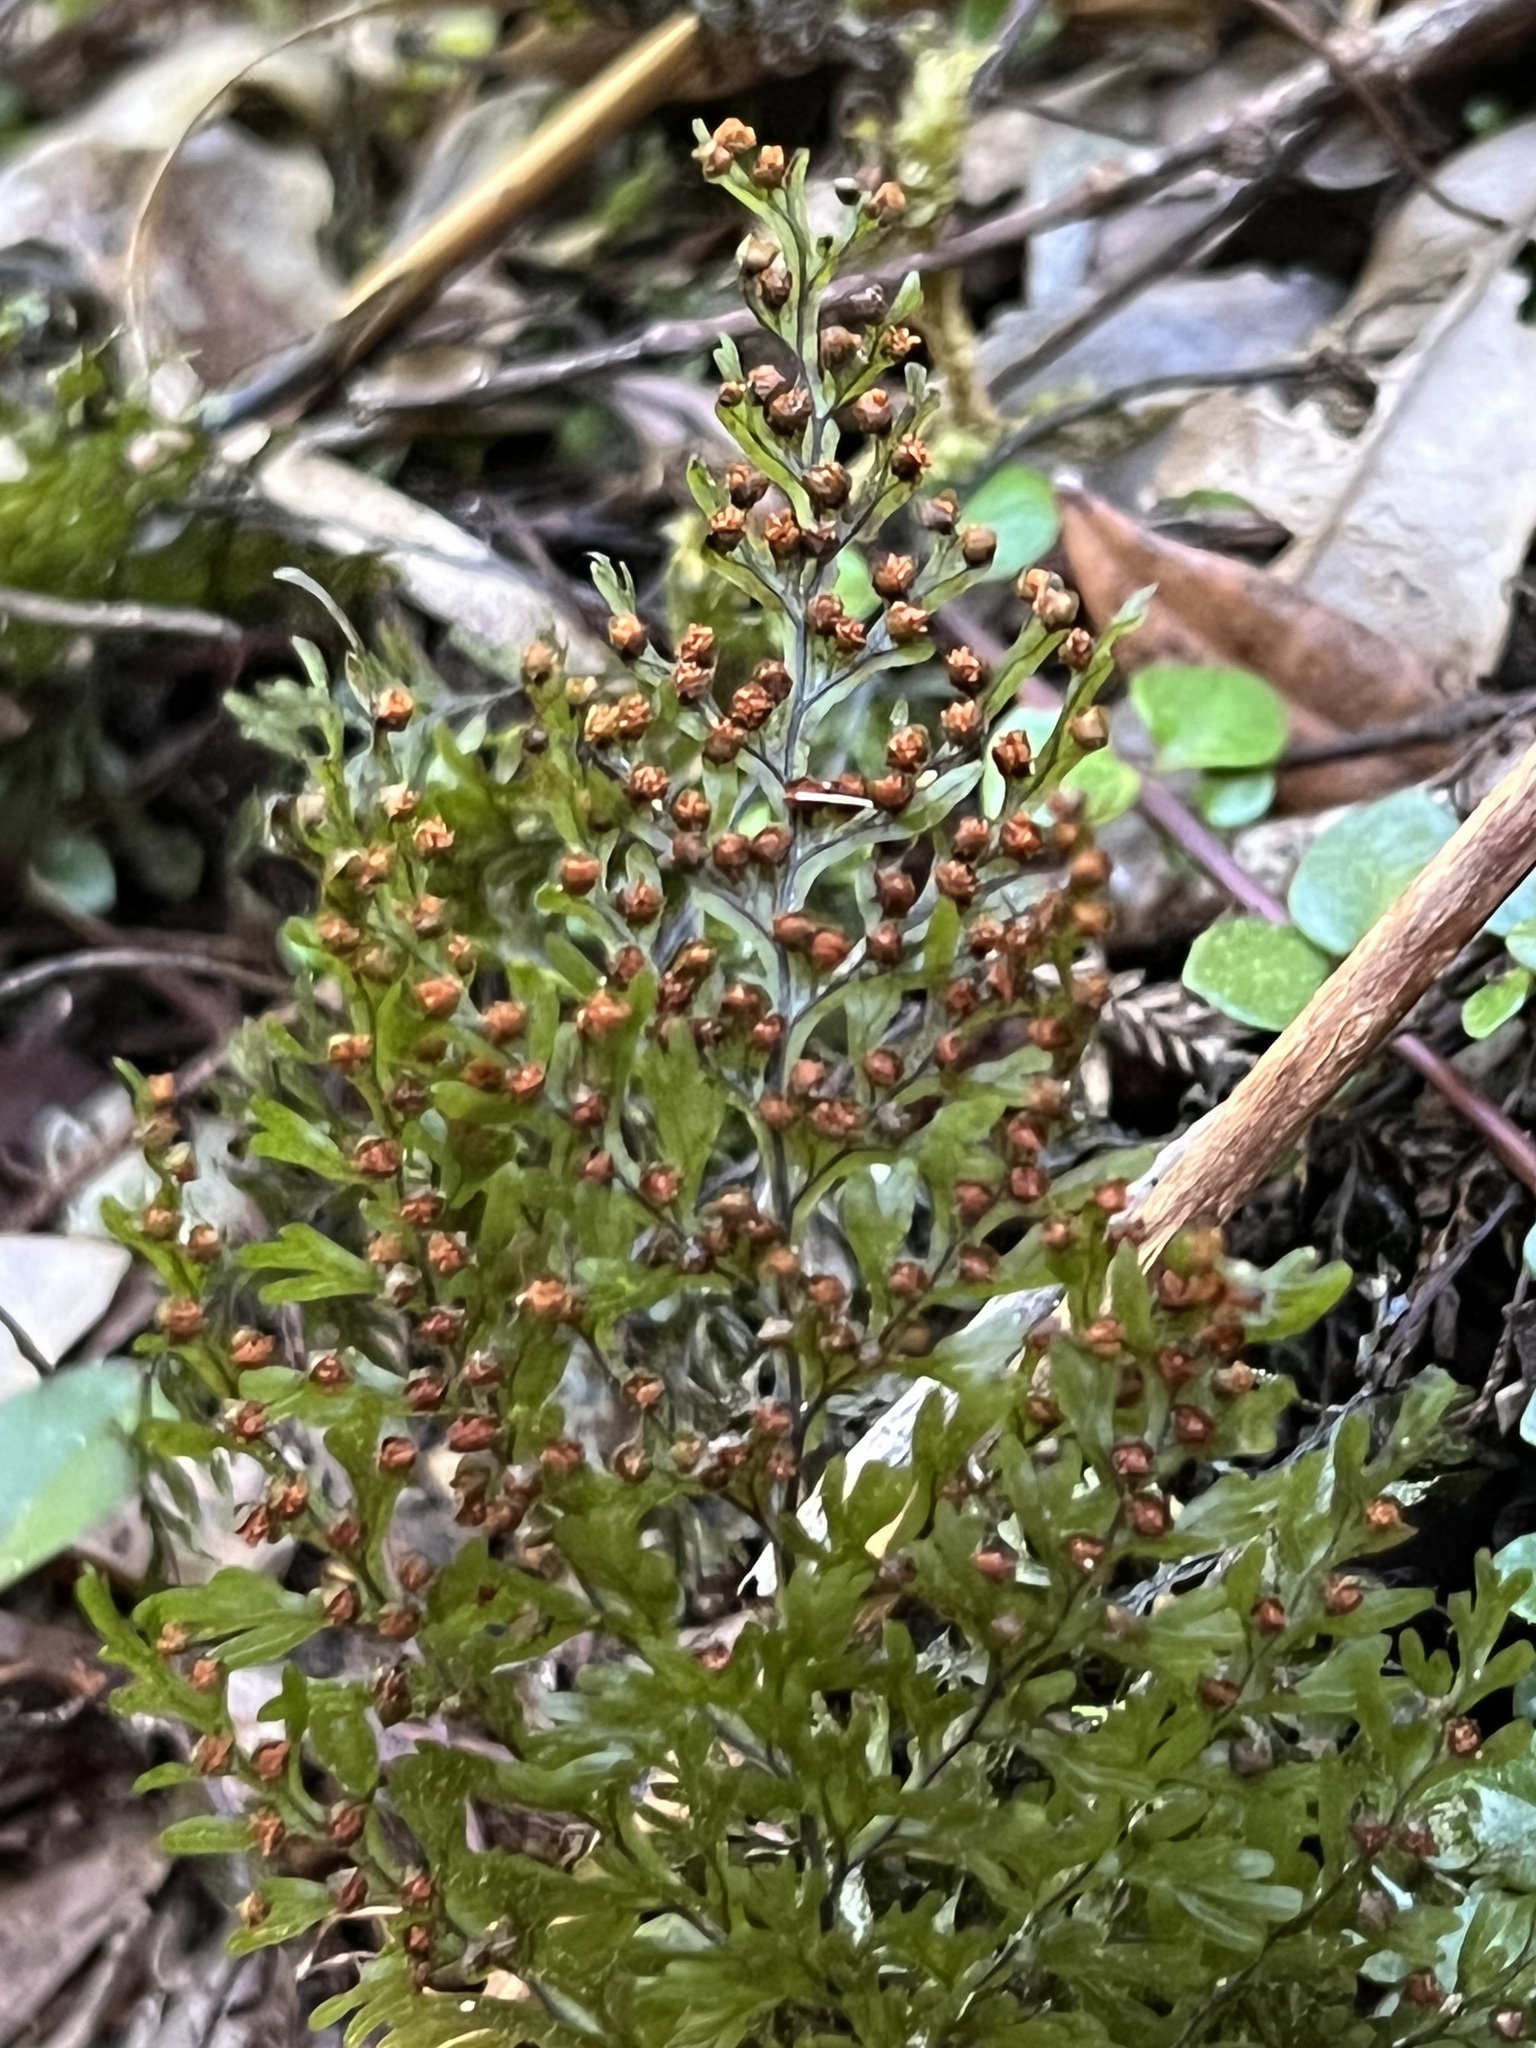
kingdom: Plantae
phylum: Tracheophyta
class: Polypodiopsida
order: Hymenophyllales
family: Hymenophyllaceae
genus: Hymenophyllum
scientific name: Hymenophyllum sanguinolentum
